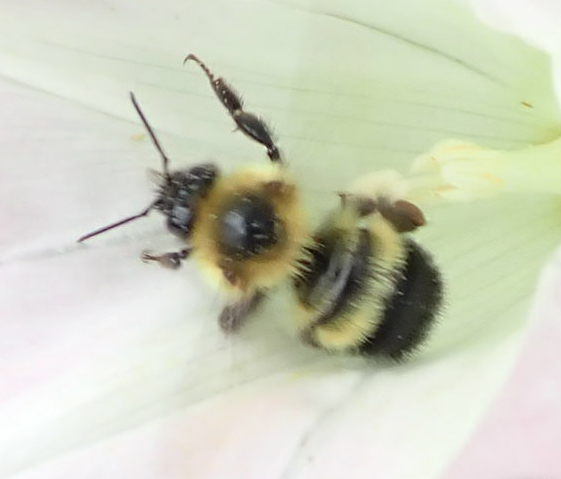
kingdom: Animalia
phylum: Arthropoda
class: Insecta
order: Hymenoptera
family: Apidae
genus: Pyrobombus
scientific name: Pyrobombus
